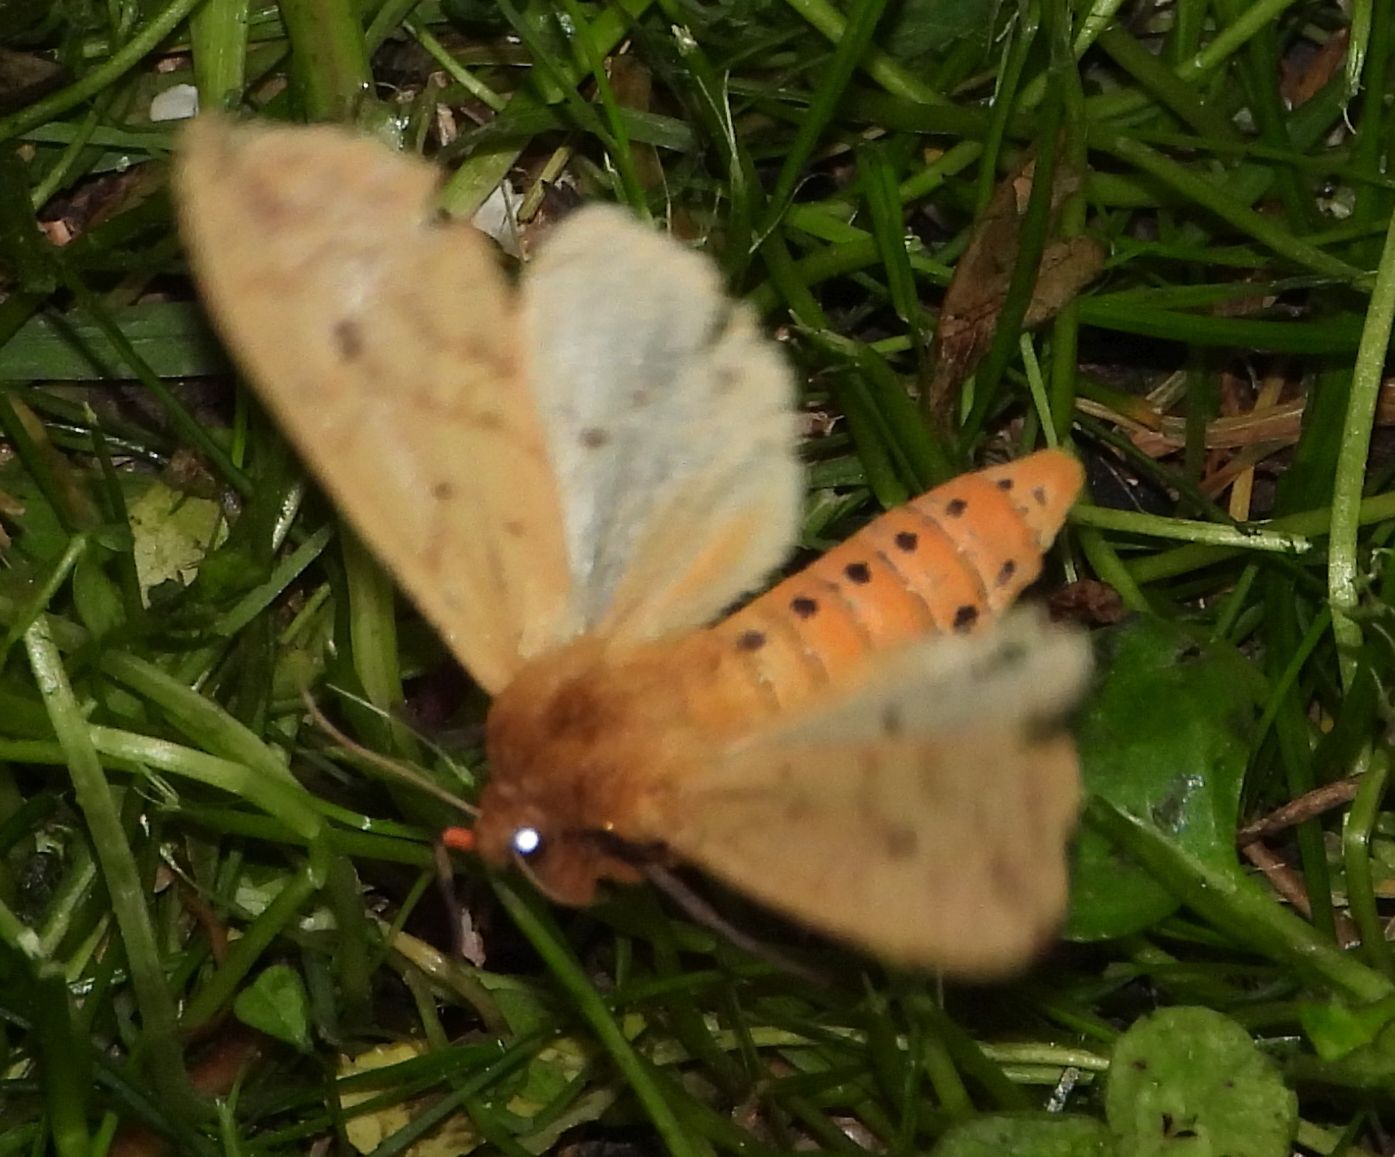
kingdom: Animalia
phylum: Arthropoda
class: Insecta
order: Lepidoptera
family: Erebidae
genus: Pyrrharctia
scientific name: Pyrrharctia isabella
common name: Isabella tiger moth
